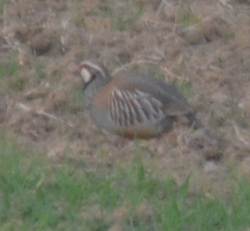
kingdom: Animalia
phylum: Chordata
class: Aves
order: Galliformes
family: Phasianidae
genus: Alectoris
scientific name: Alectoris rufa
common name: Red-legged partridge
